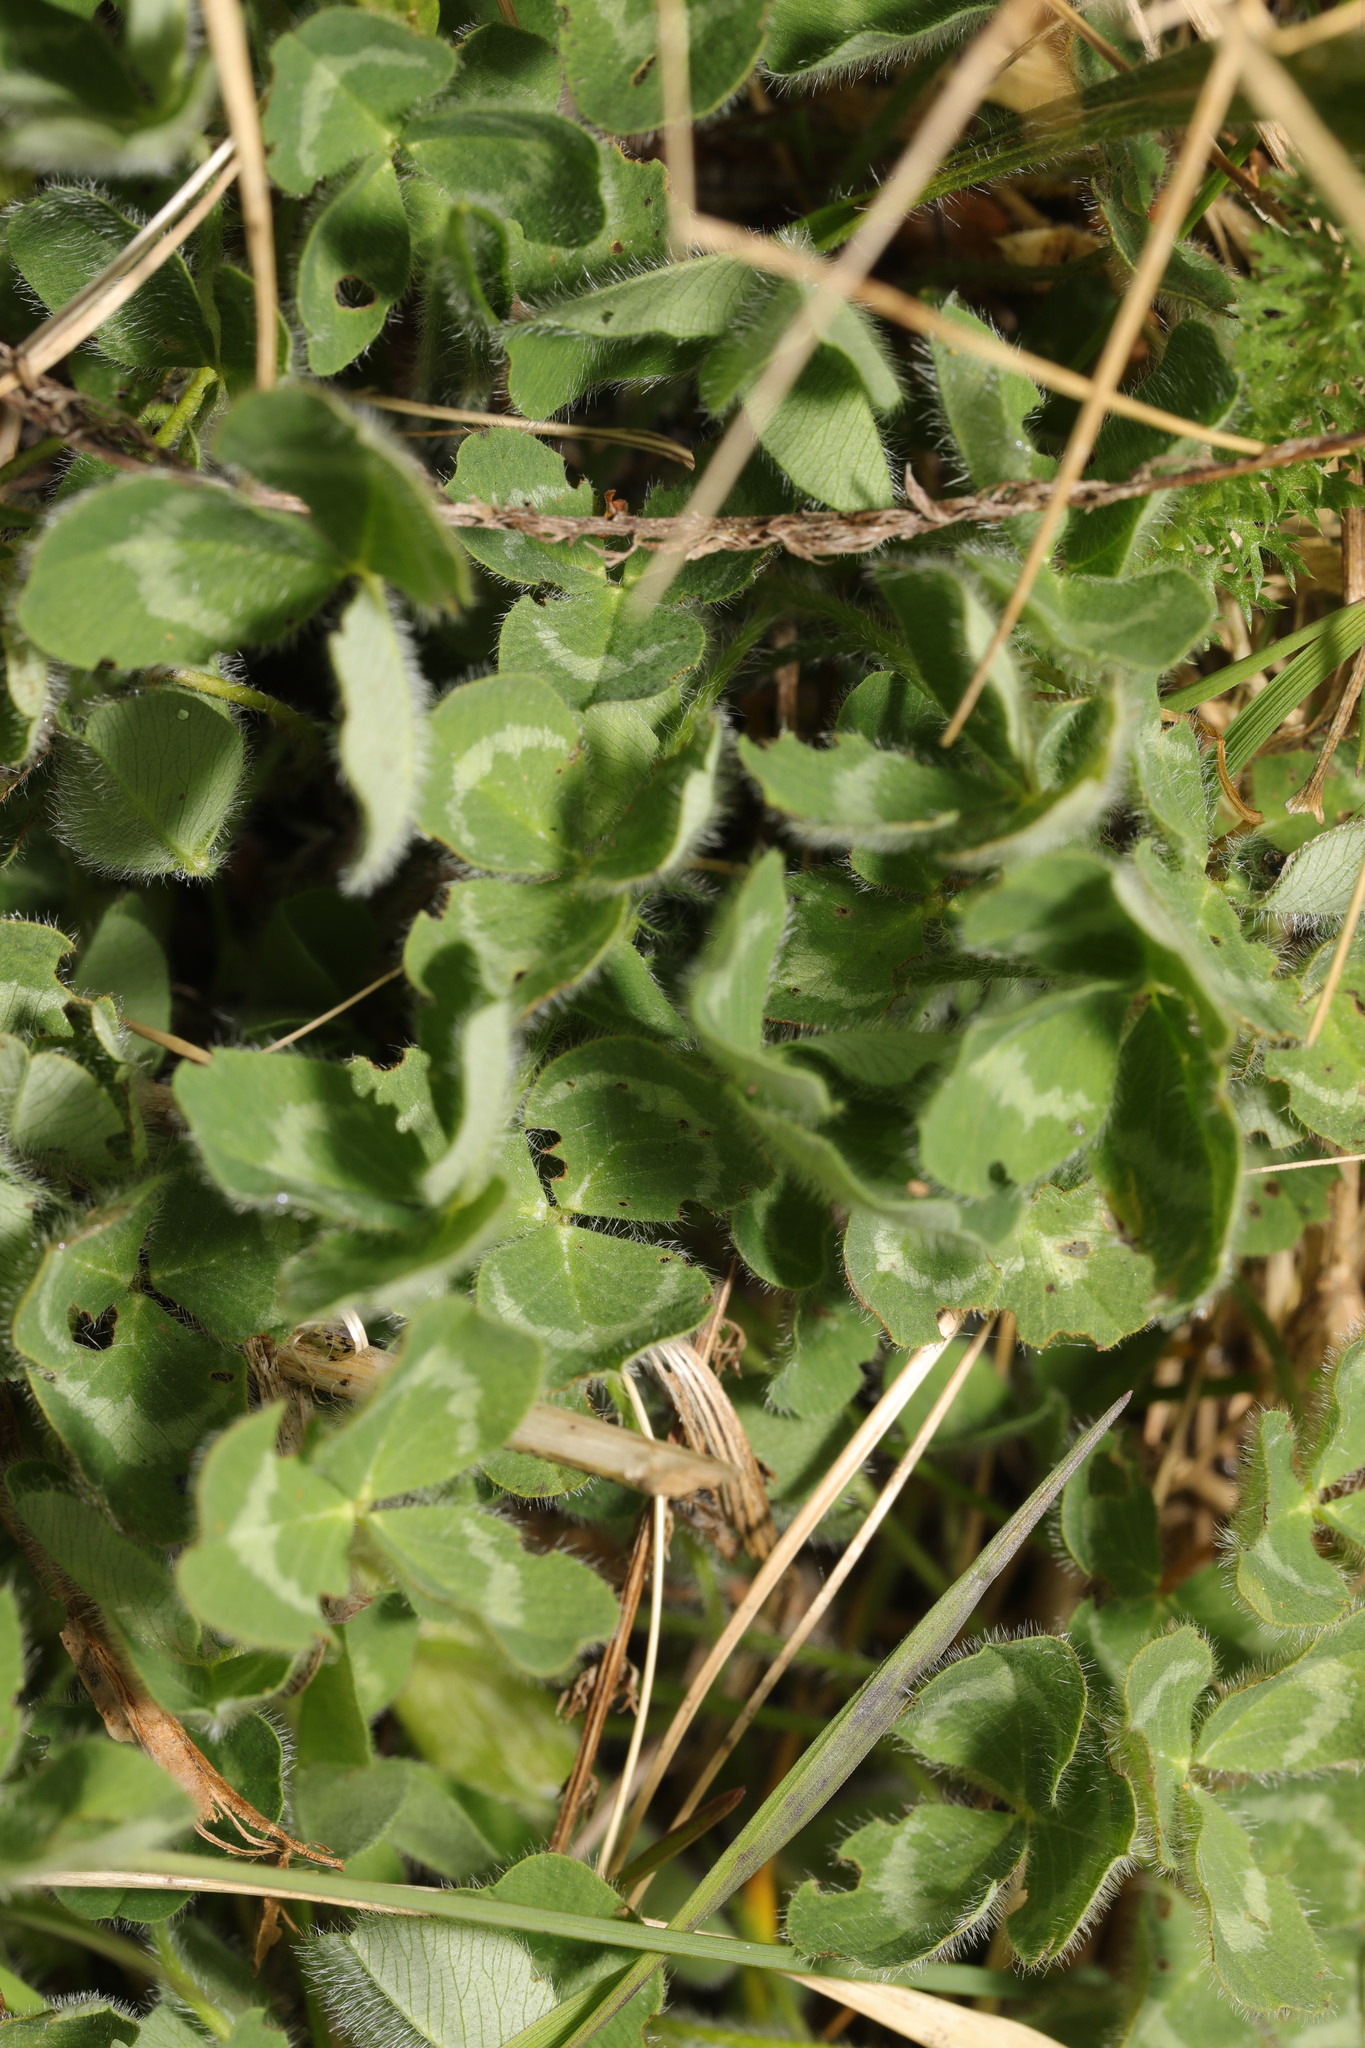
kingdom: Plantae
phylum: Tracheophyta
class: Magnoliopsida
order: Fabales
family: Fabaceae
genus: Trifolium
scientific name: Trifolium pratense
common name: Red clover
